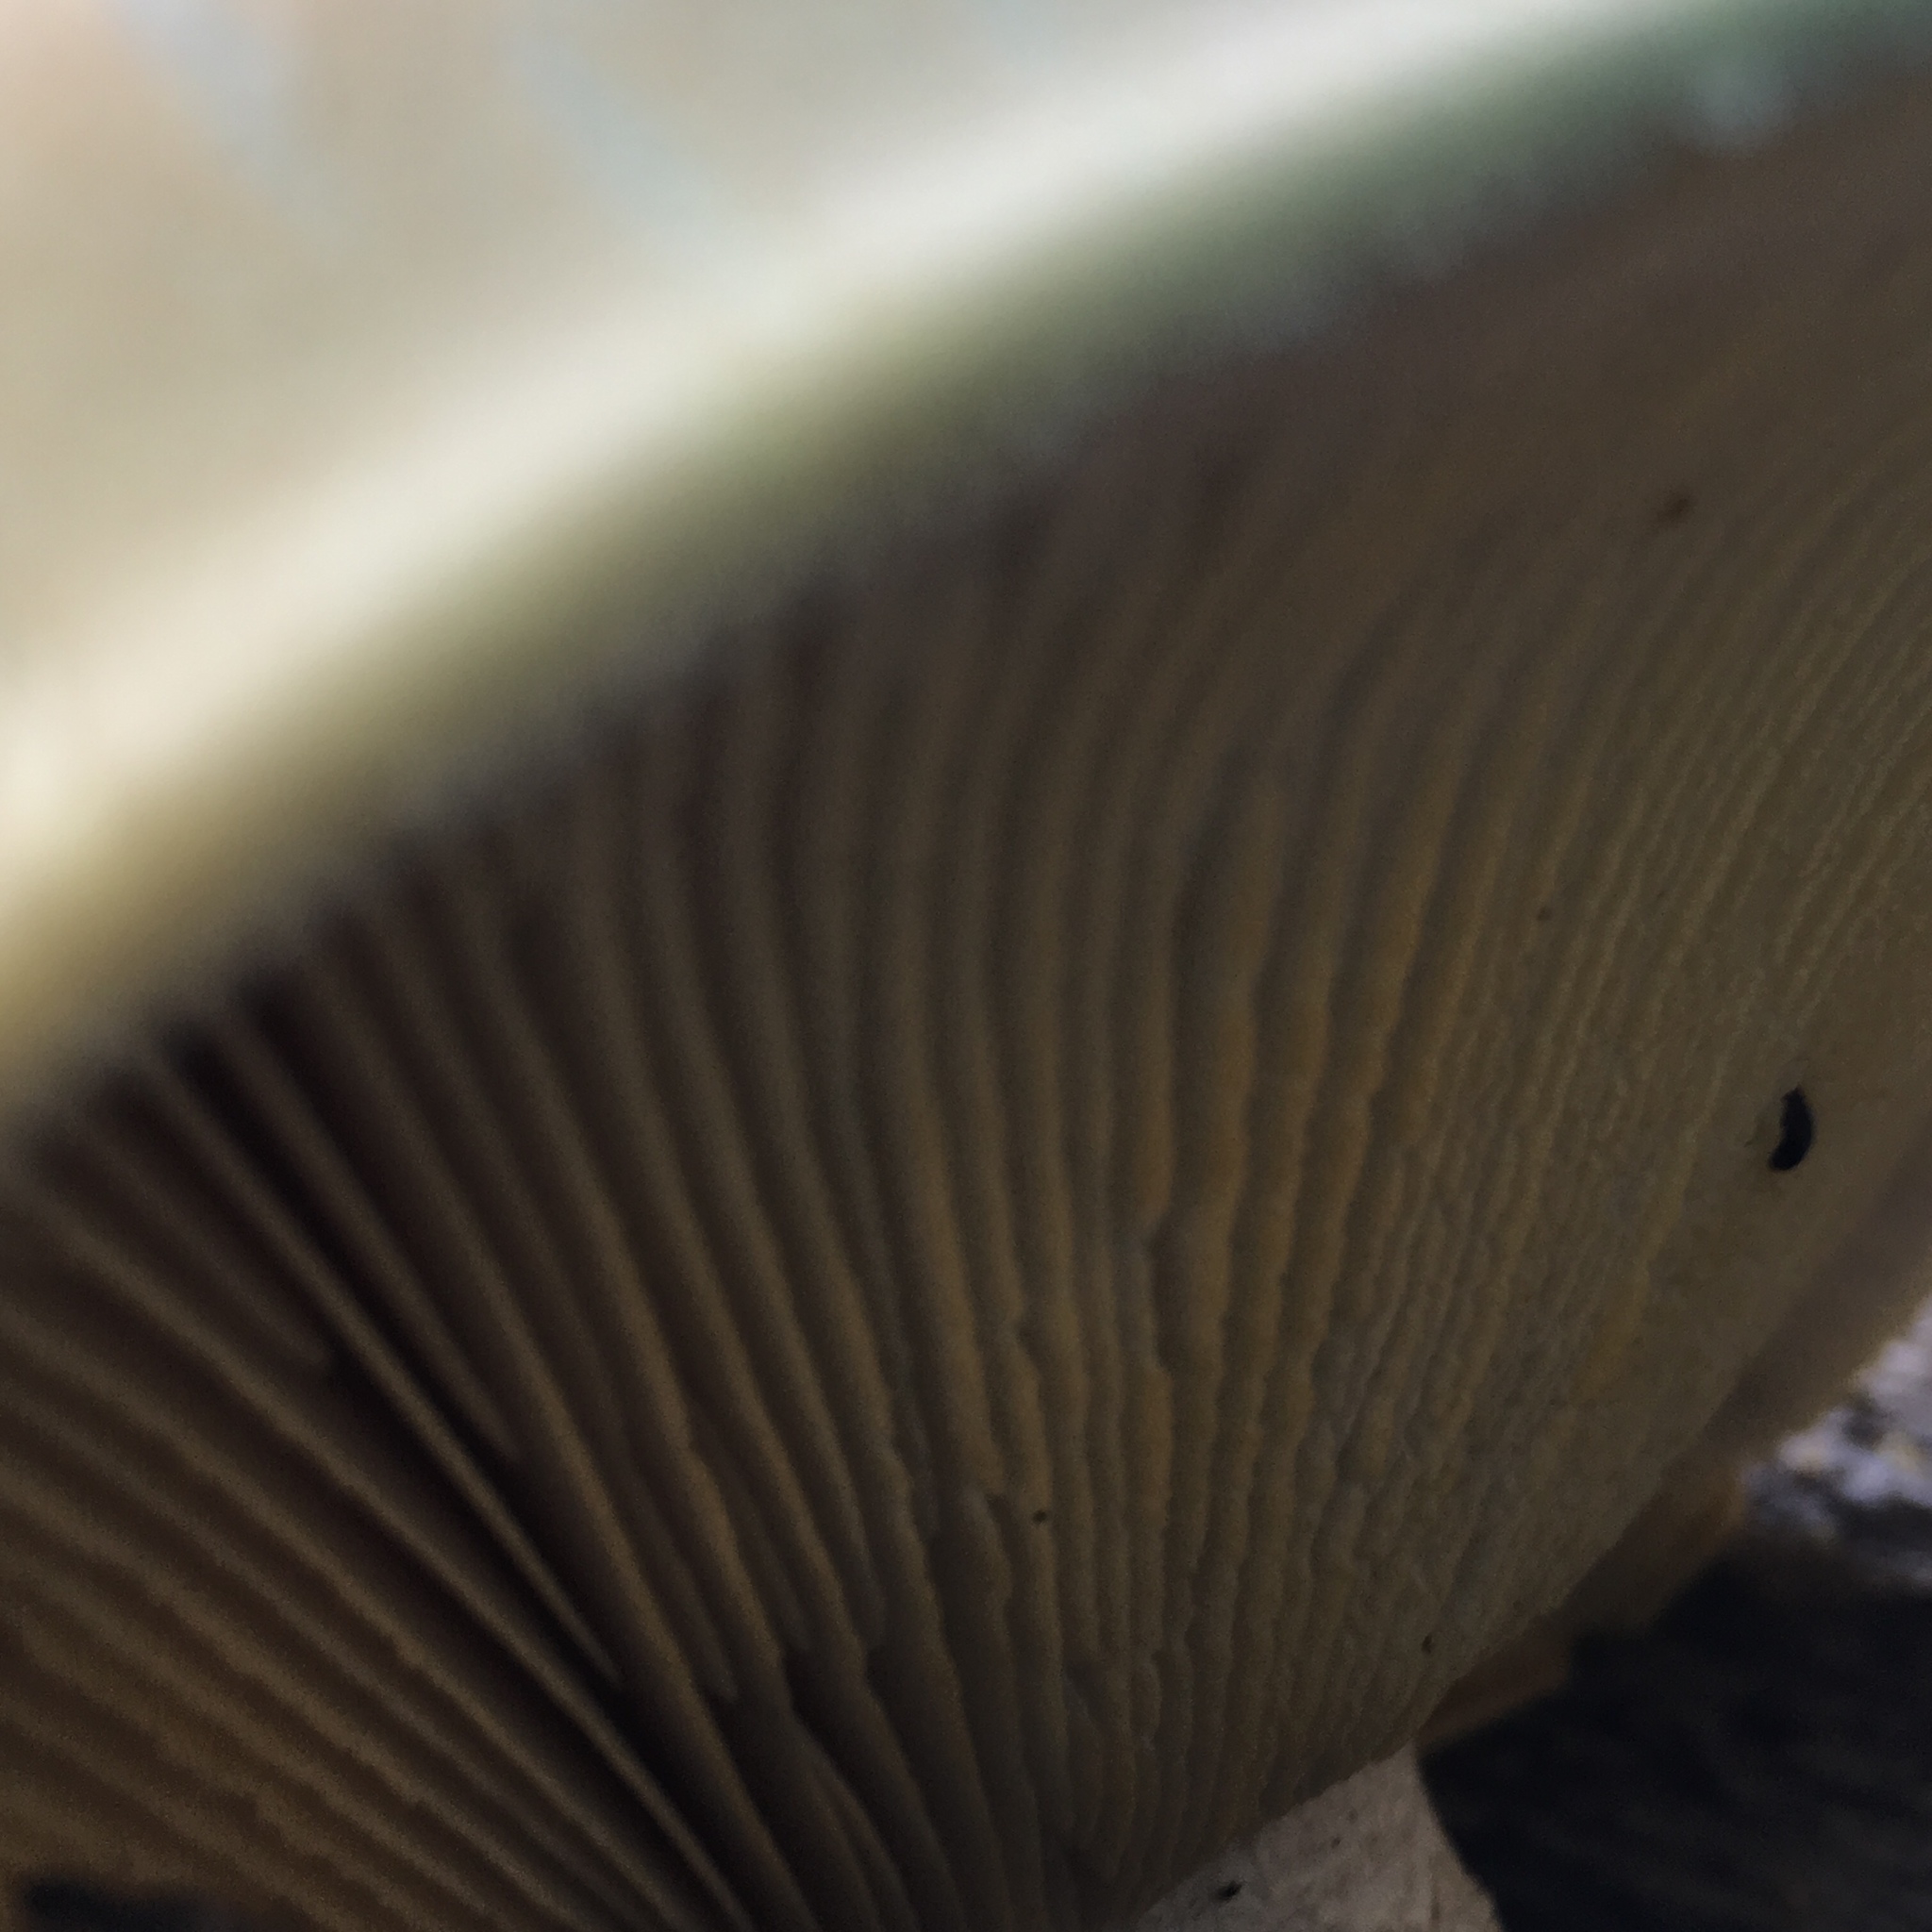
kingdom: Fungi
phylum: Basidiomycota
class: Agaricomycetes
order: Gloeophyllales
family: Gloeophyllaceae
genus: Neolentinus
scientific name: Neolentinus ponderosus
